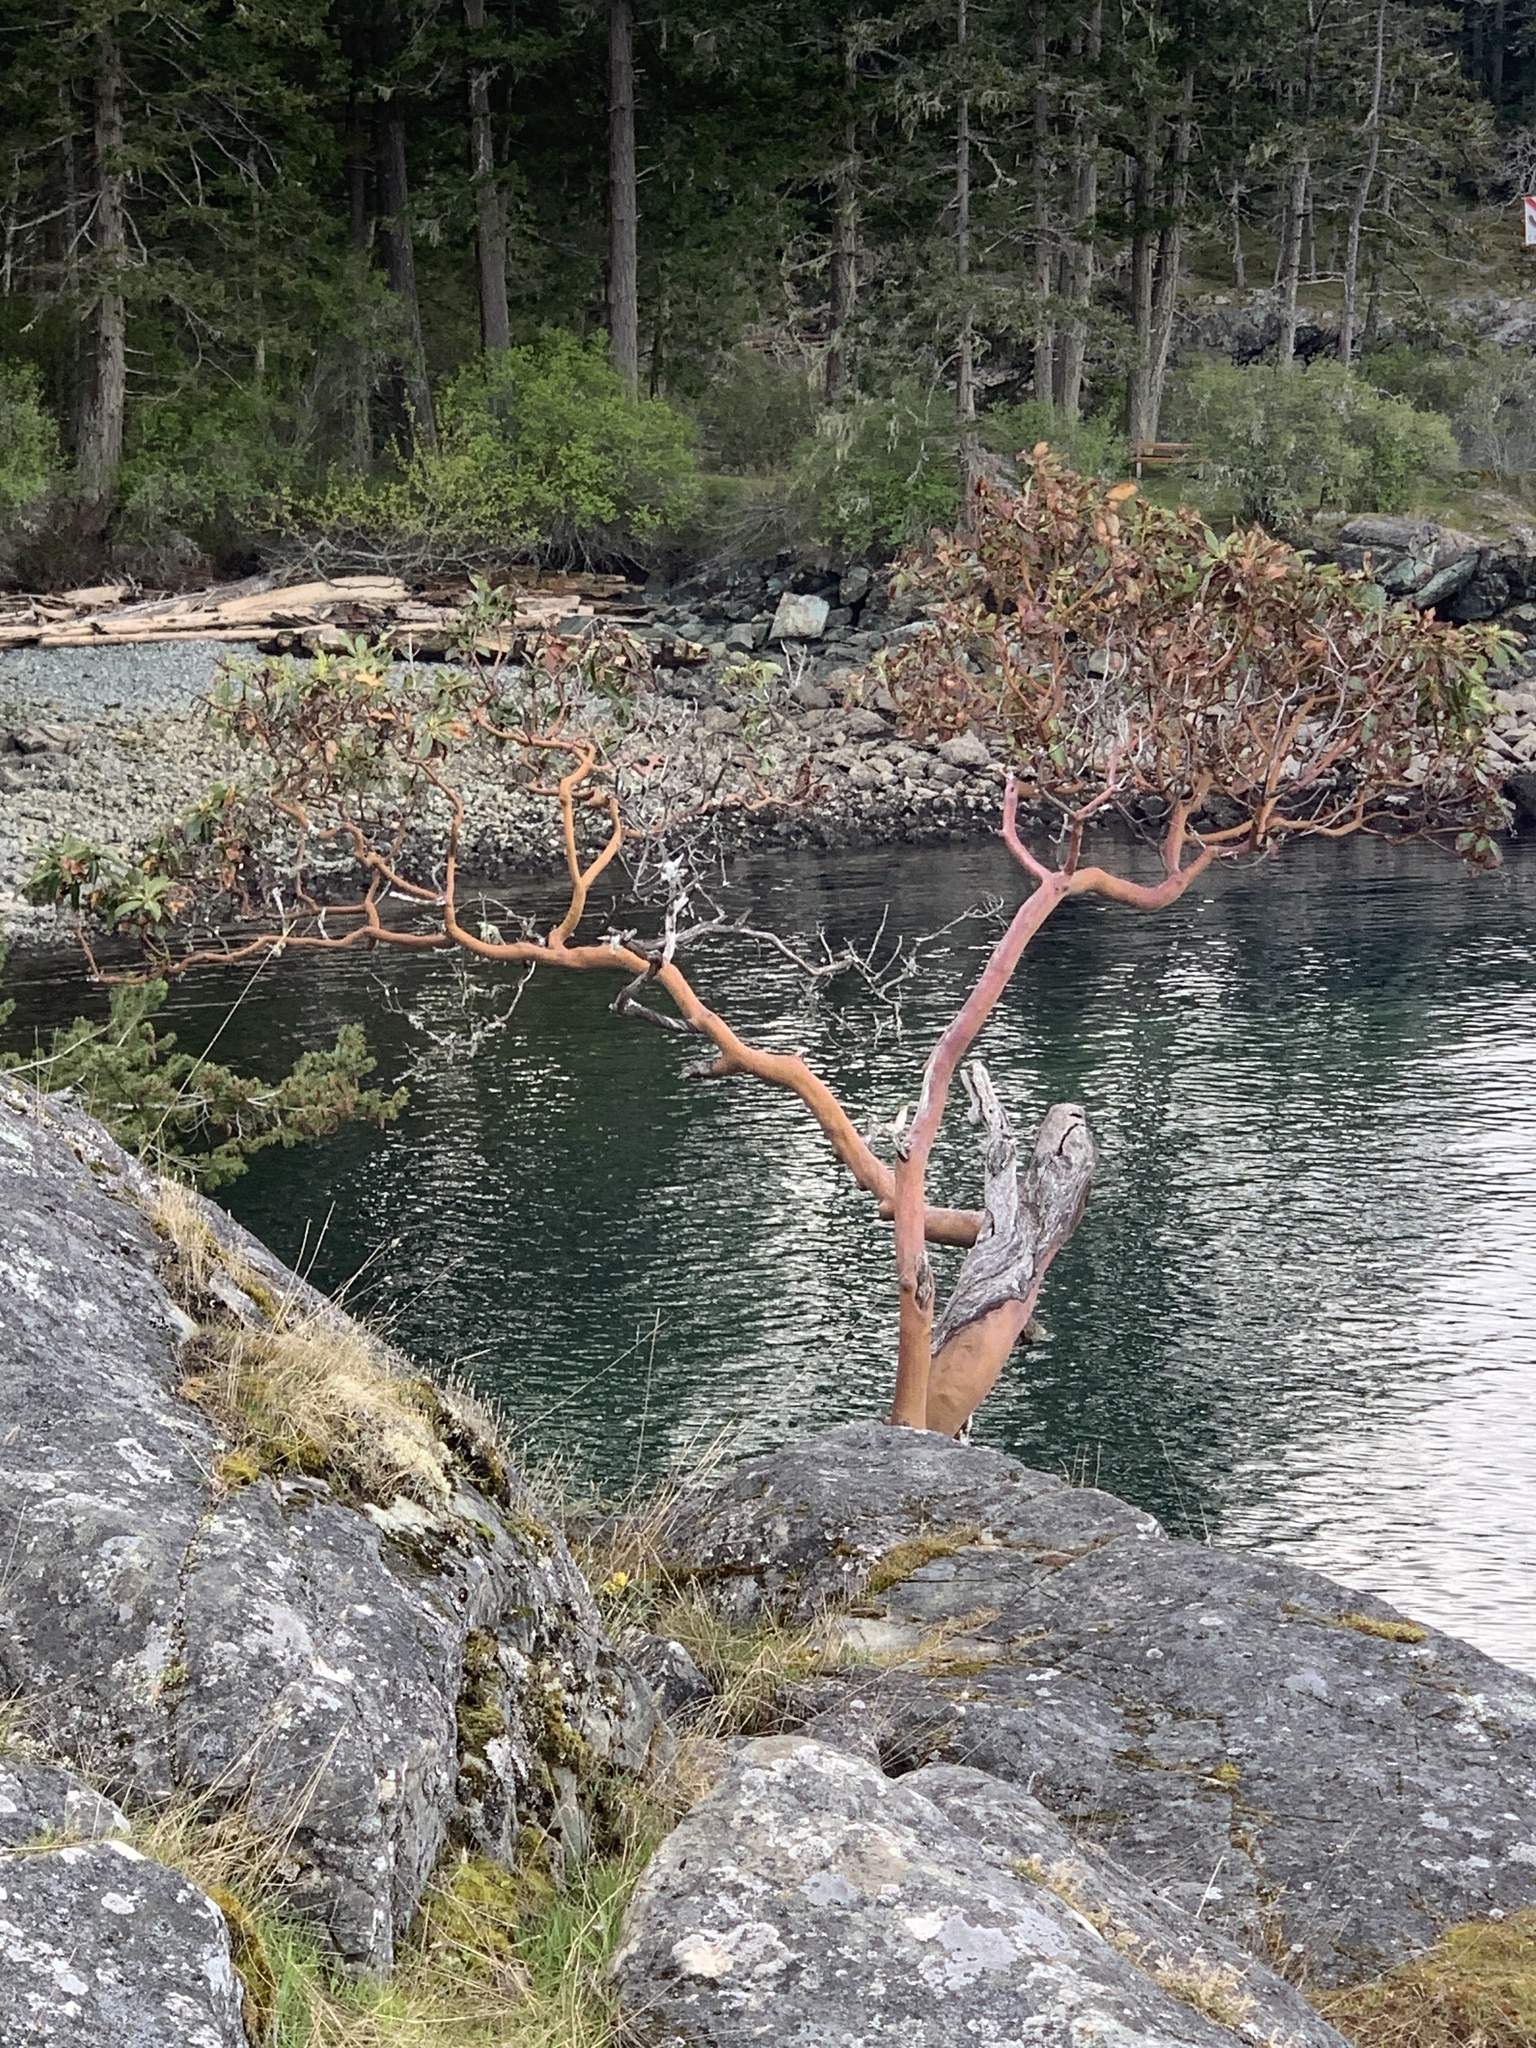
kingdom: Plantae
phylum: Tracheophyta
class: Magnoliopsida
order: Ericales
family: Ericaceae
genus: Arbutus
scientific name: Arbutus menziesii
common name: Pacific madrone
